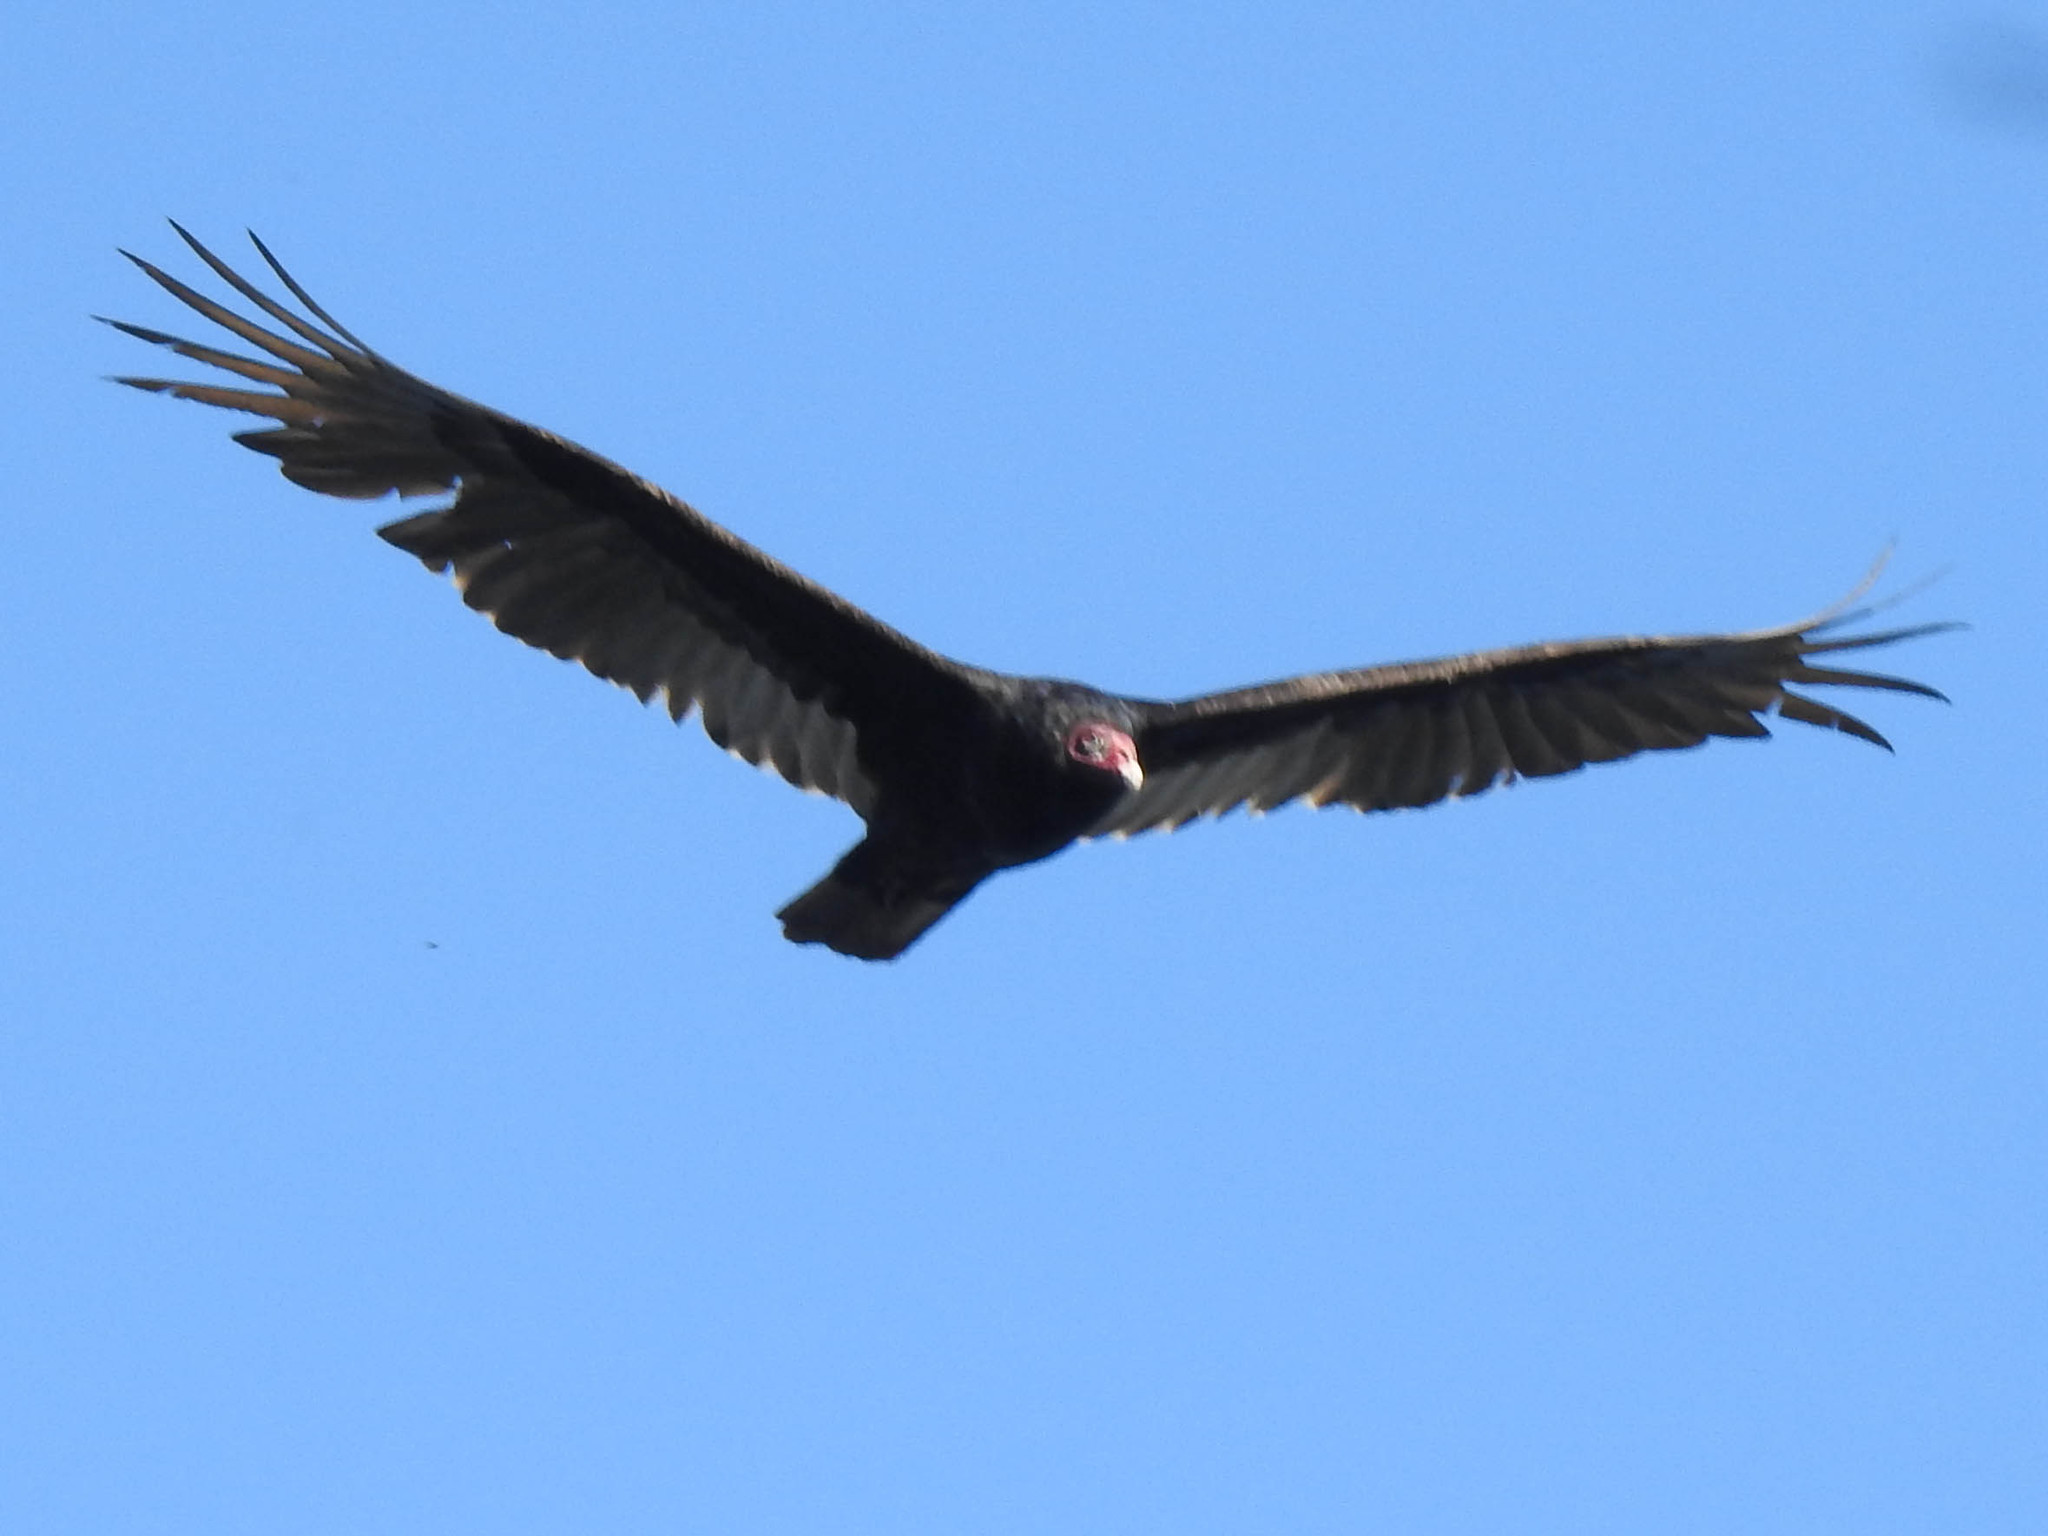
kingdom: Animalia
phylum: Chordata
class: Aves
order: Accipitriformes
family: Cathartidae
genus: Cathartes
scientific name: Cathartes aura
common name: Turkey vulture
